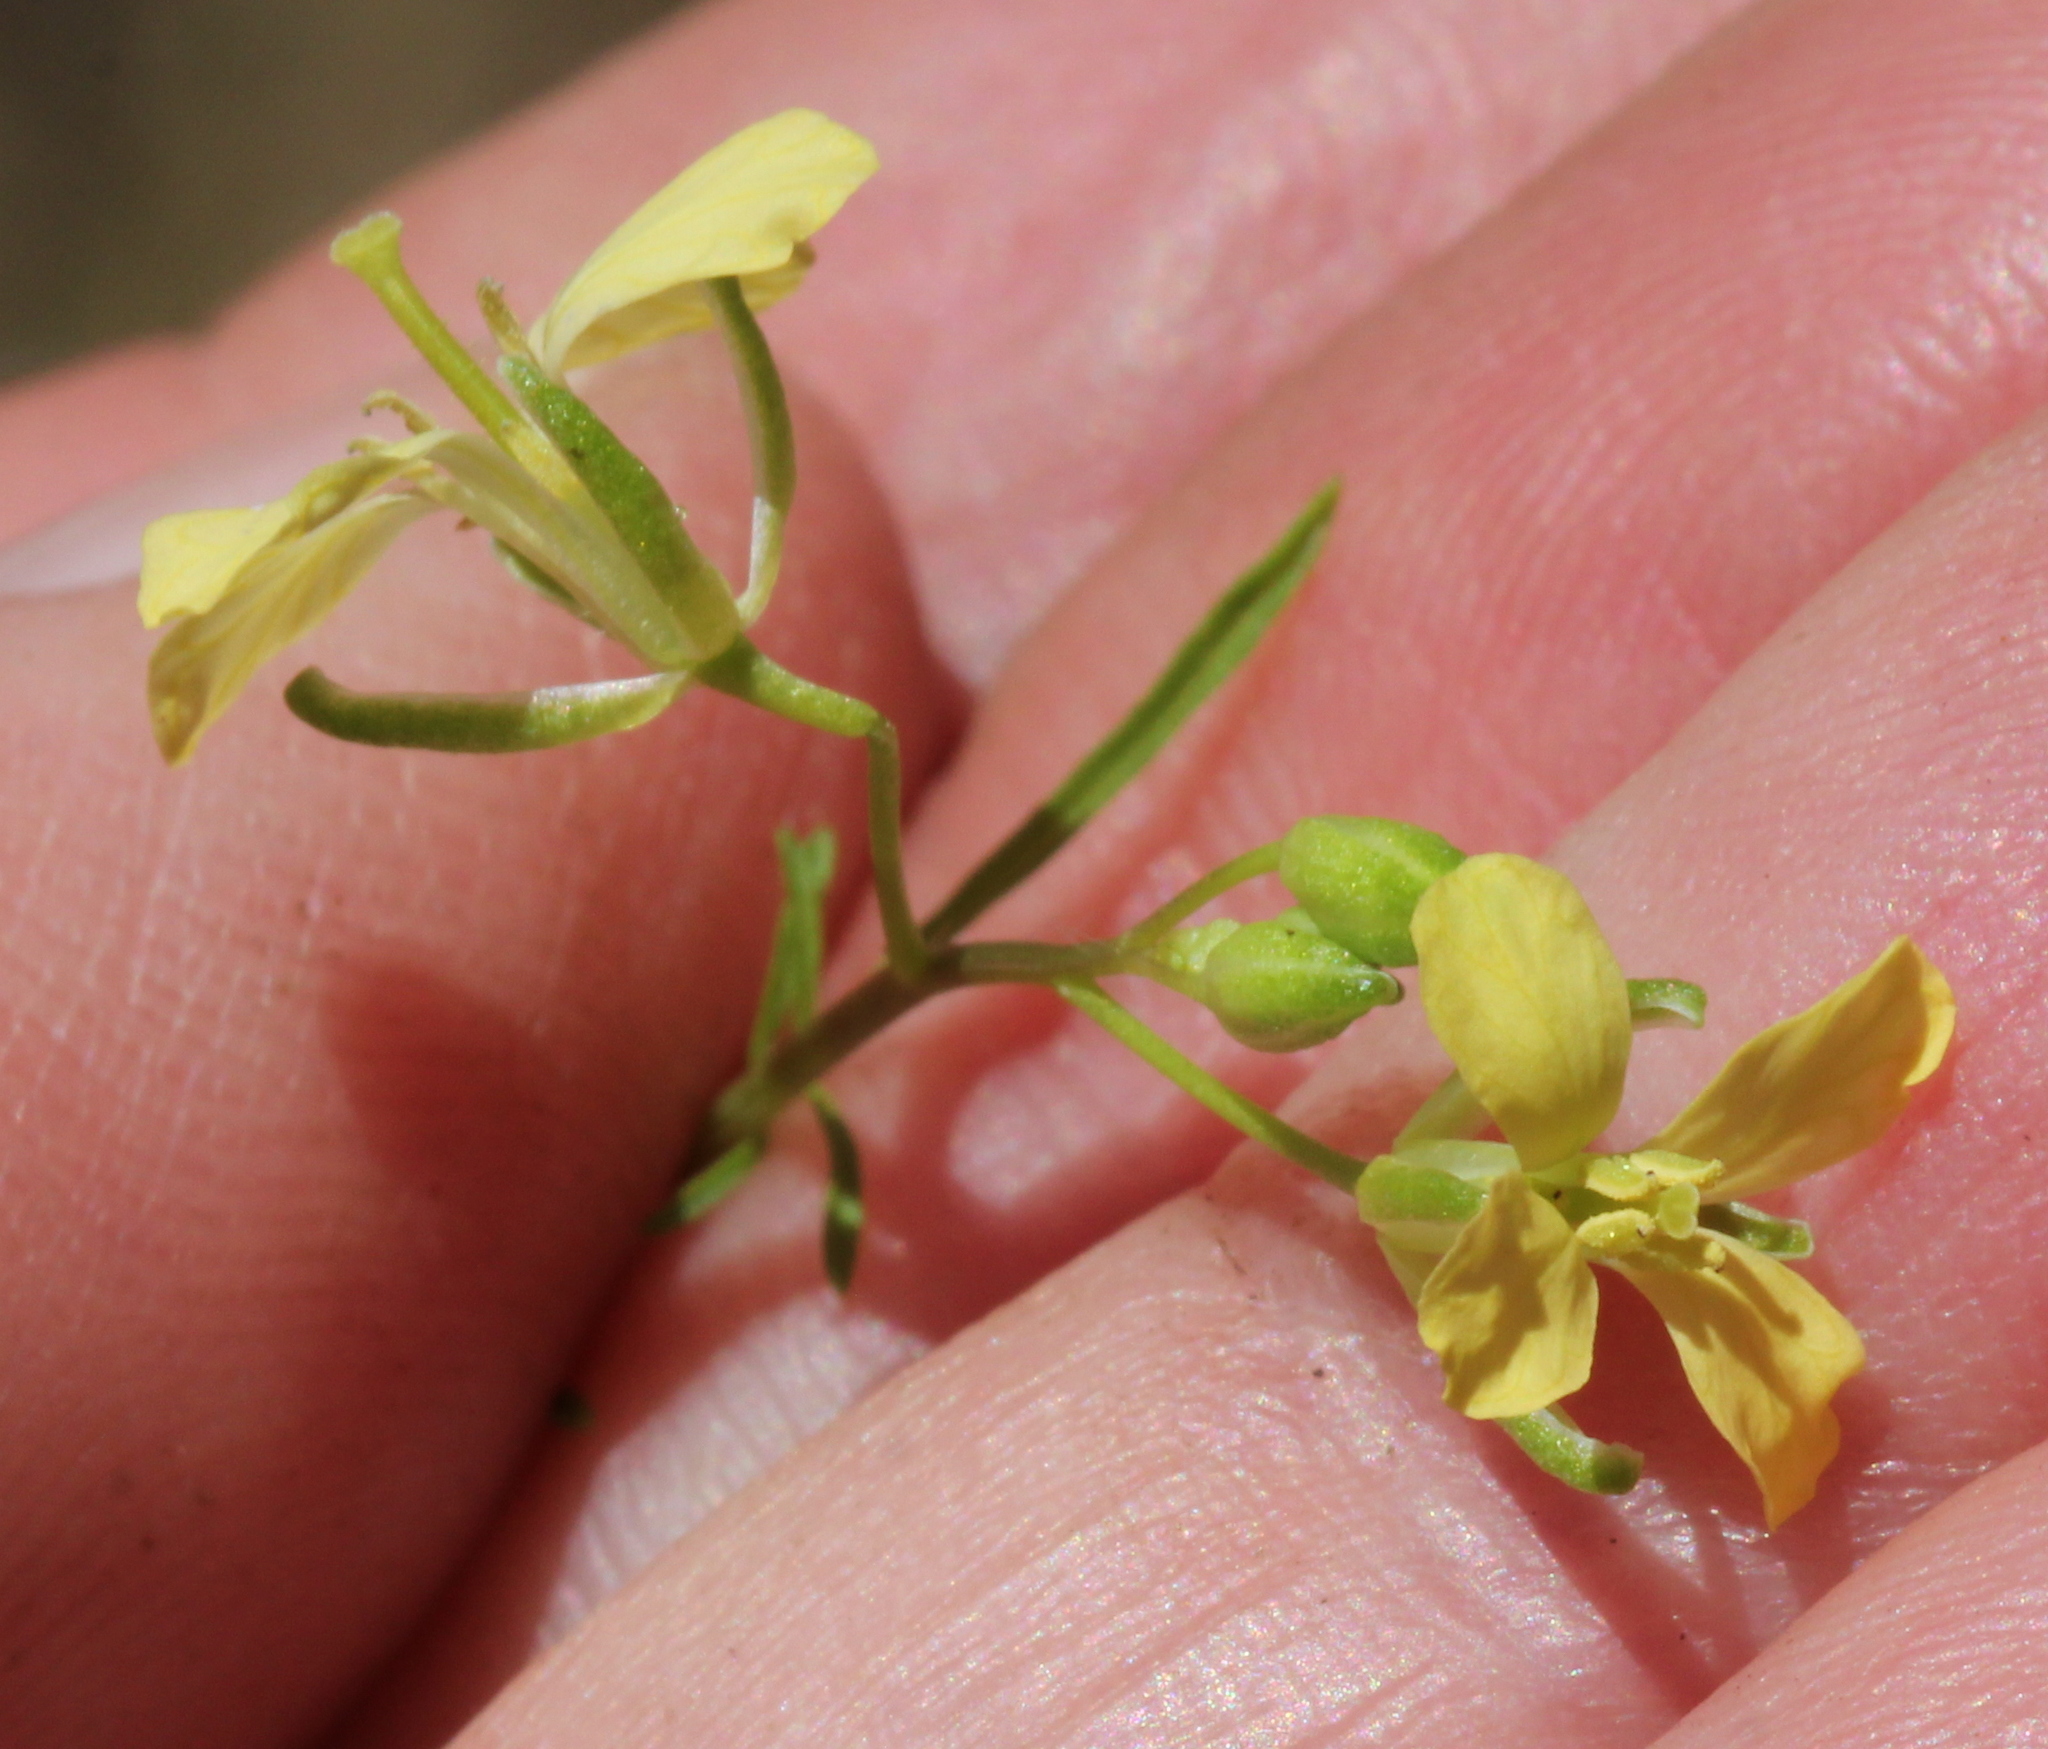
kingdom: Plantae
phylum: Tracheophyta
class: Magnoliopsida
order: Brassicales
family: Brassicaceae
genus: Sisymbrium
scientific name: Sisymbrium altissimum
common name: Tall rocket
